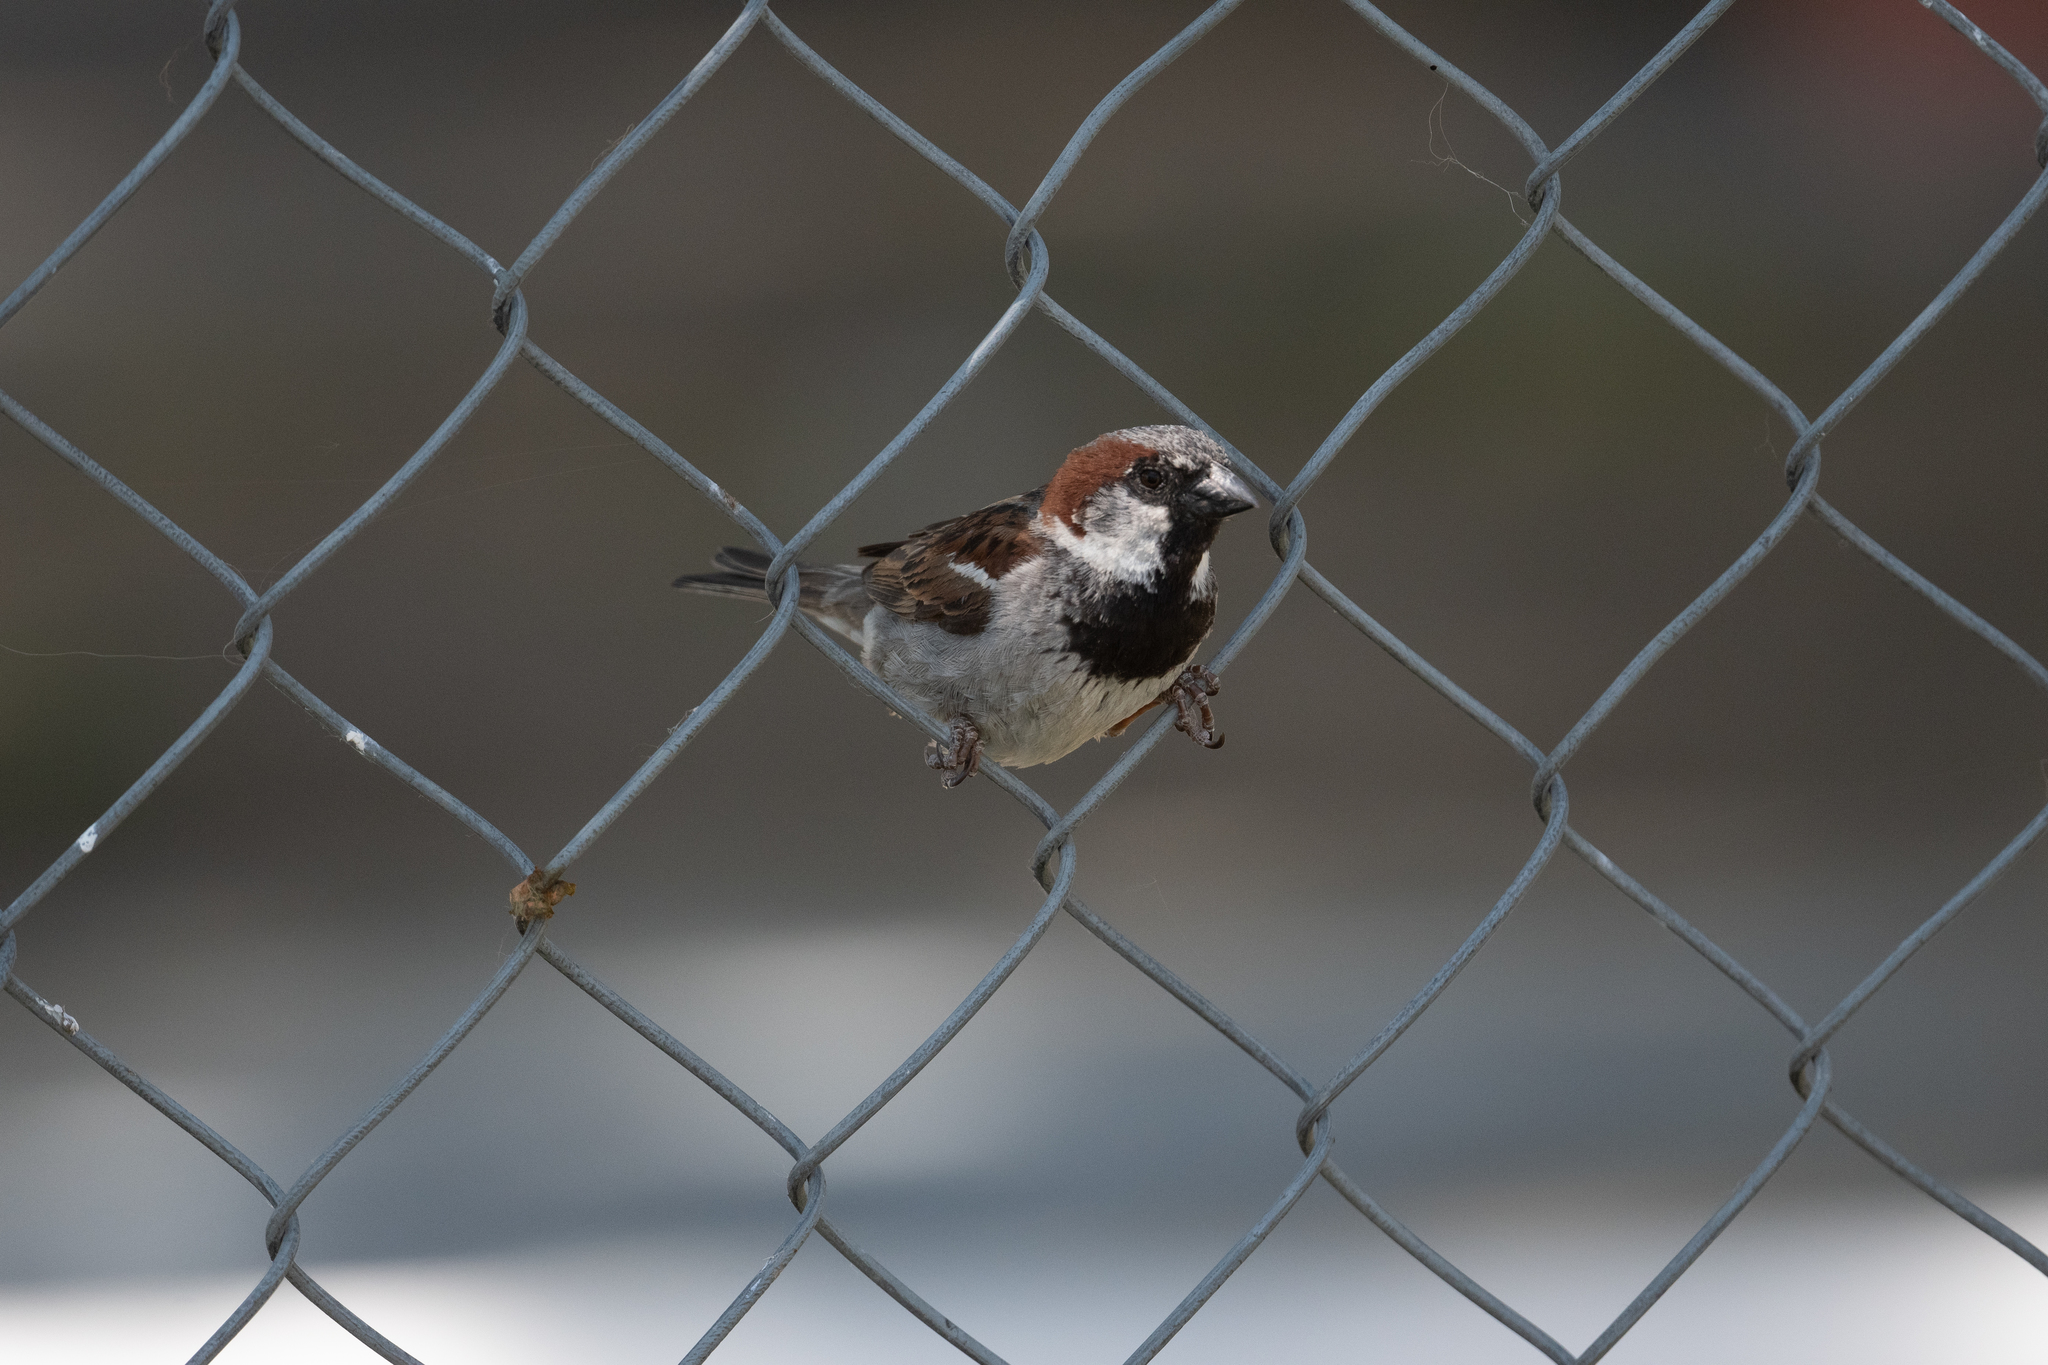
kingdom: Animalia
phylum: Chordata
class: Aves
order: Passeriformes
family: Passeridae
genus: Passer
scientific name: Passer domesticus
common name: House sparrow
